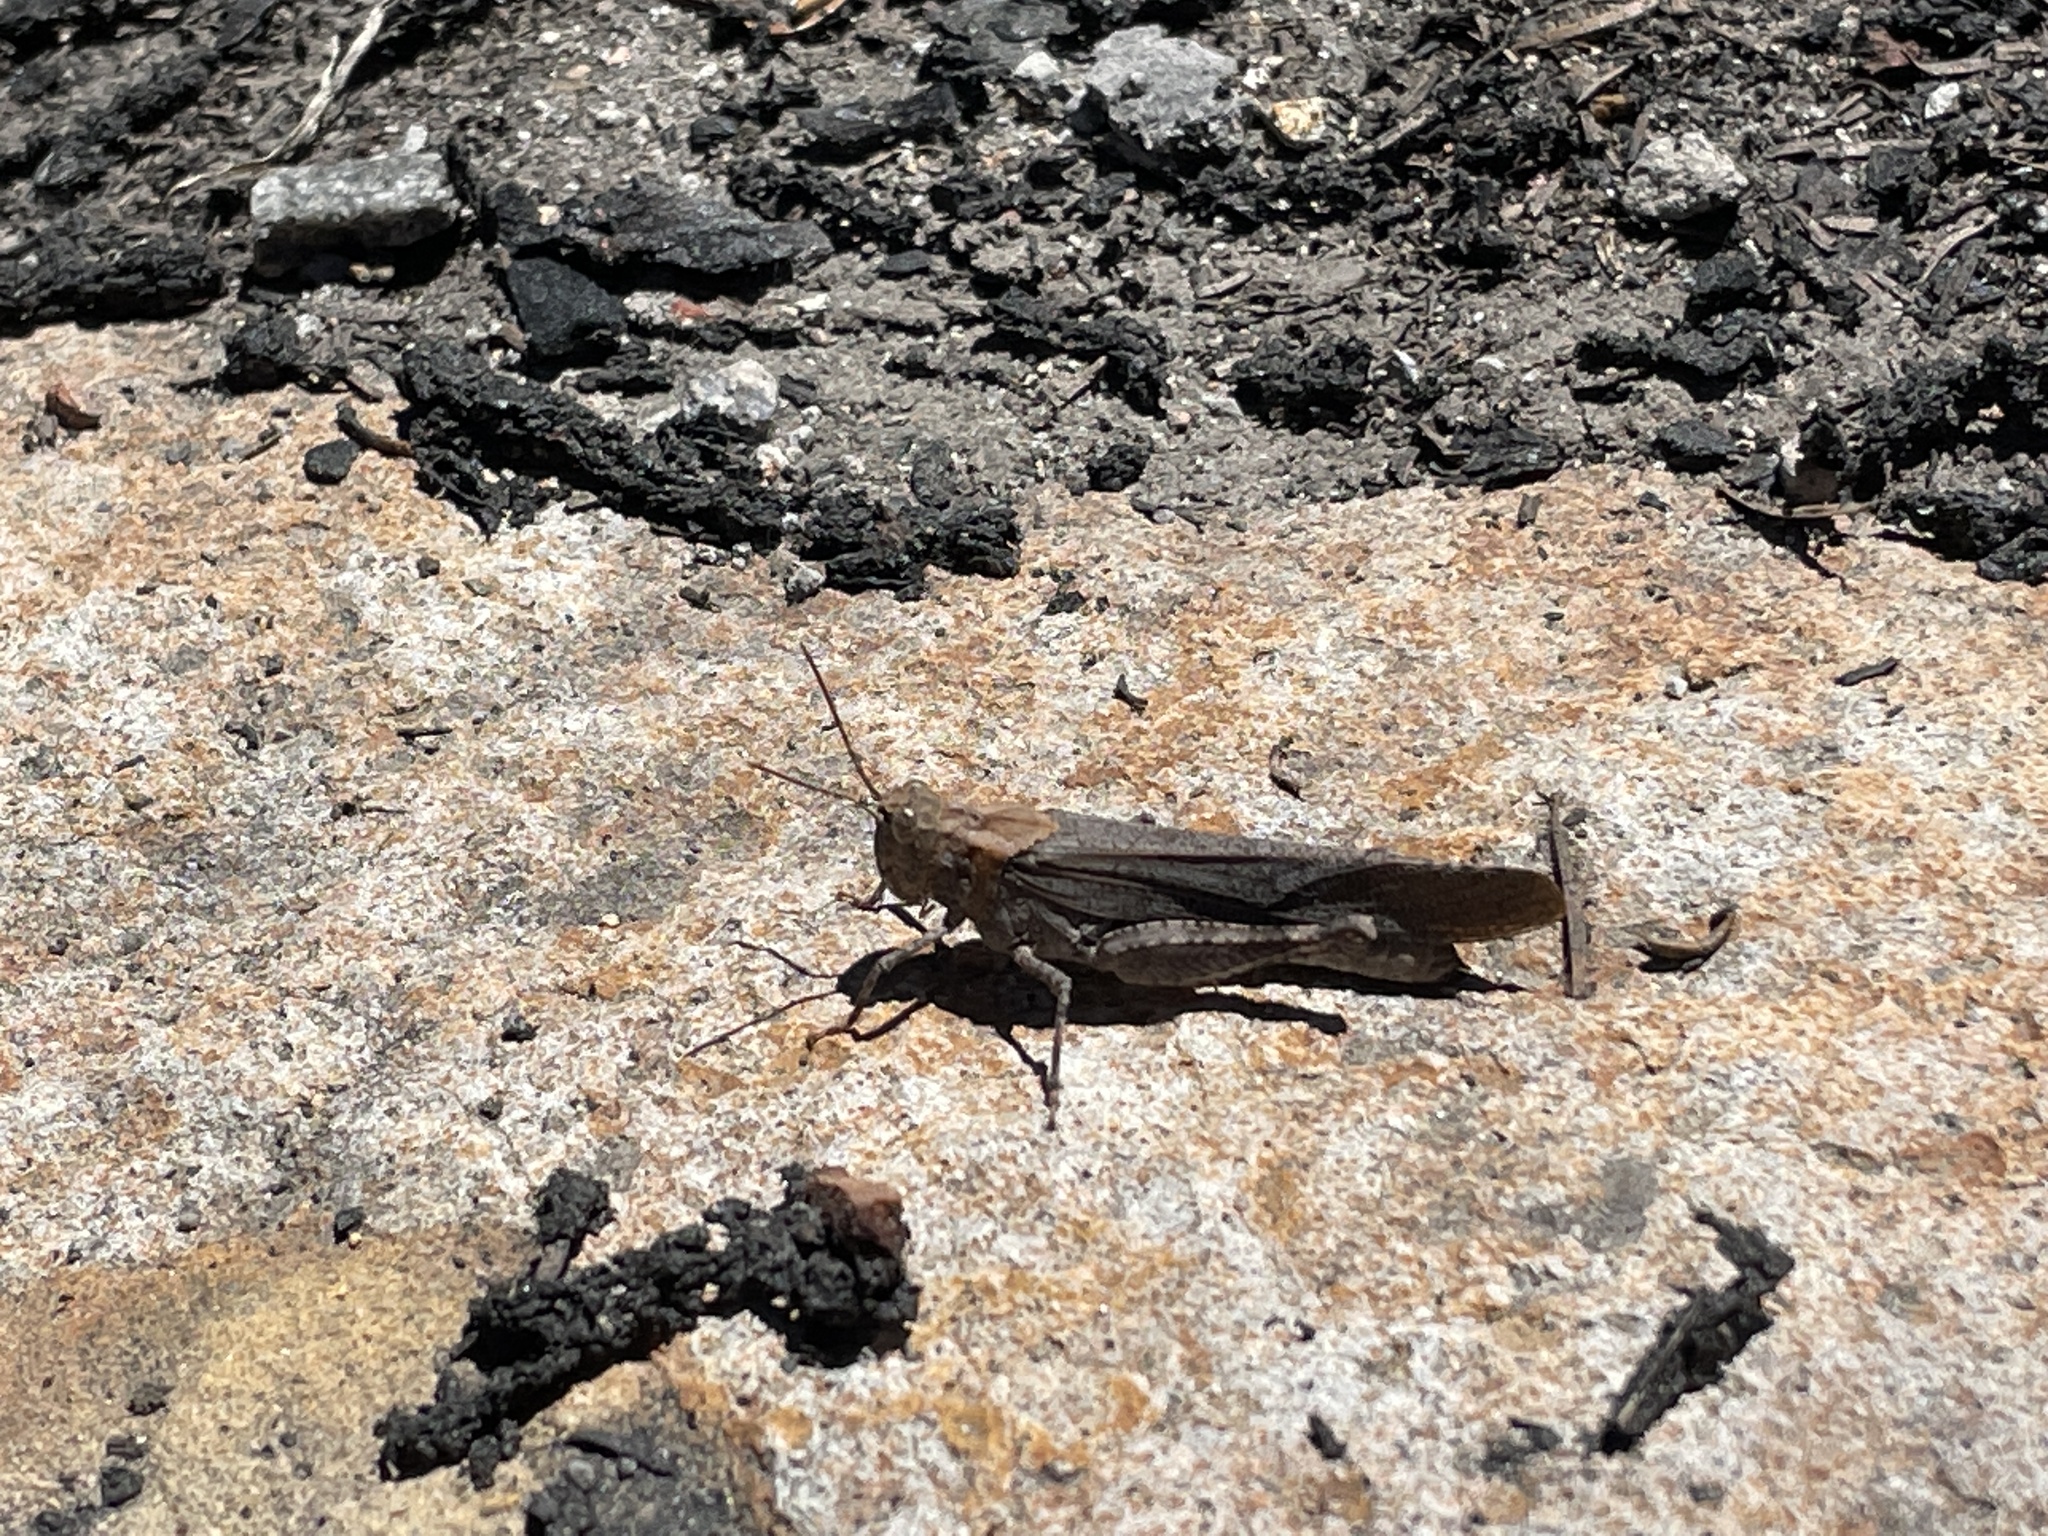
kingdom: Animalia
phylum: Arthropoda
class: Insecta
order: Orthoptera
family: Acrididae
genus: Trimerotropis
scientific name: Trimerotropis verruculata
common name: Crackling forest grasshopper
